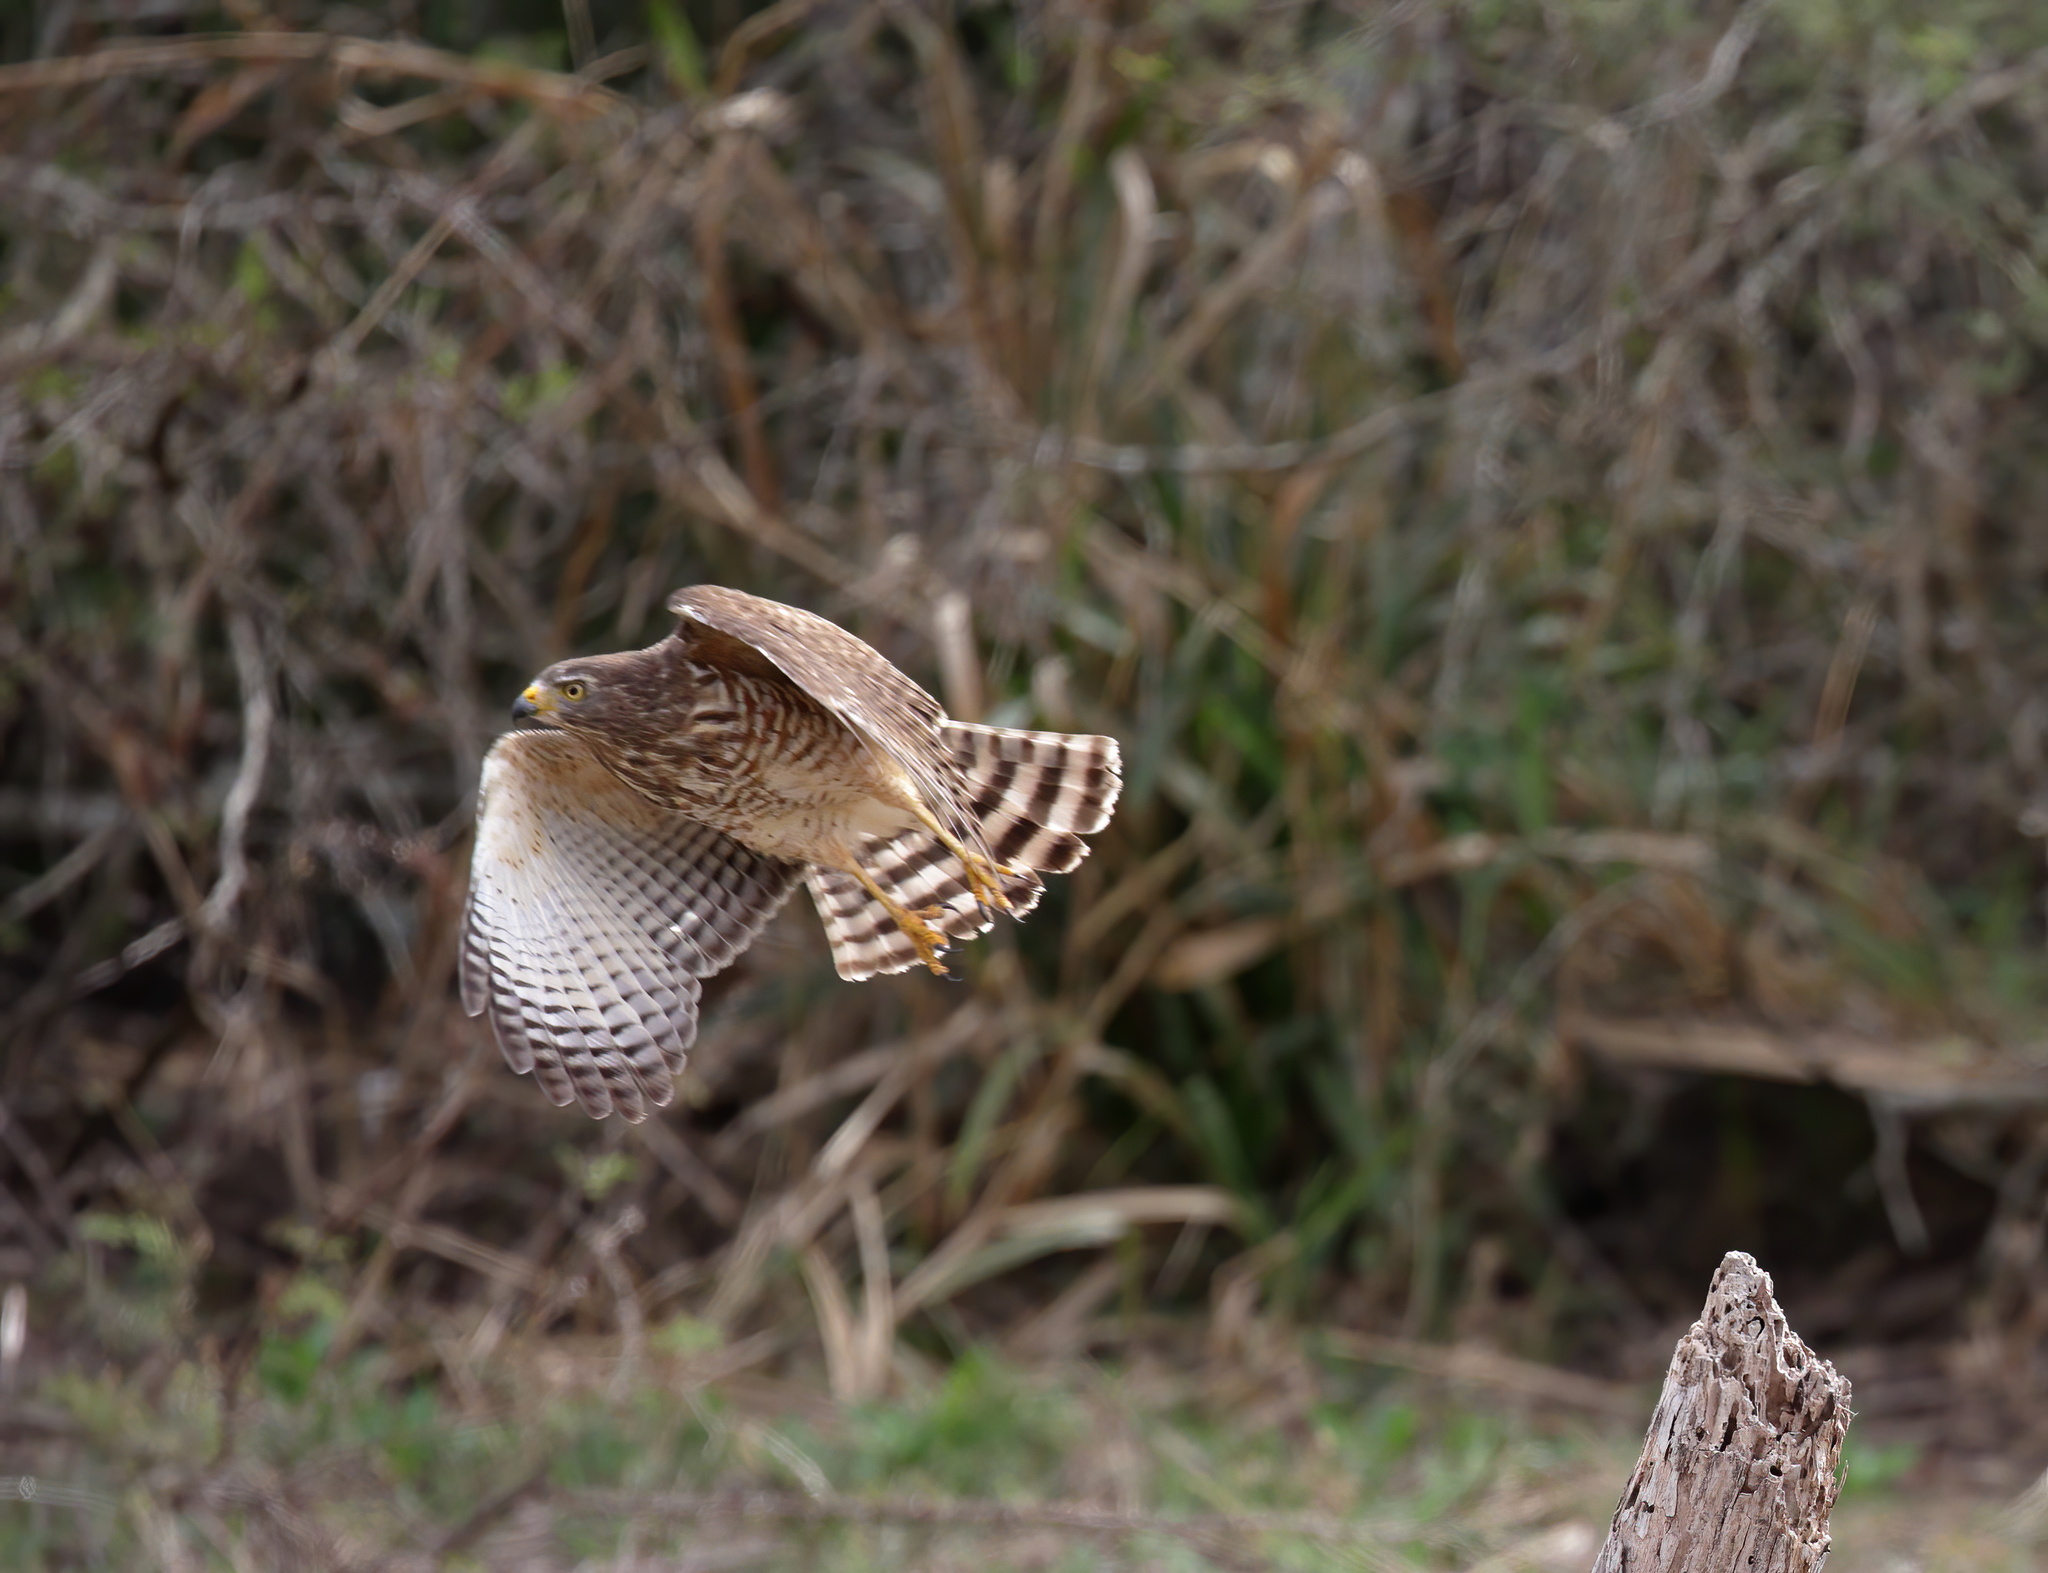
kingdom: Animalia
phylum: Chordata
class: Aves
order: Accipitriformes
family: Accipitridae
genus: Rupornis
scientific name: Rupornis magnirostris
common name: Roadside hawk
